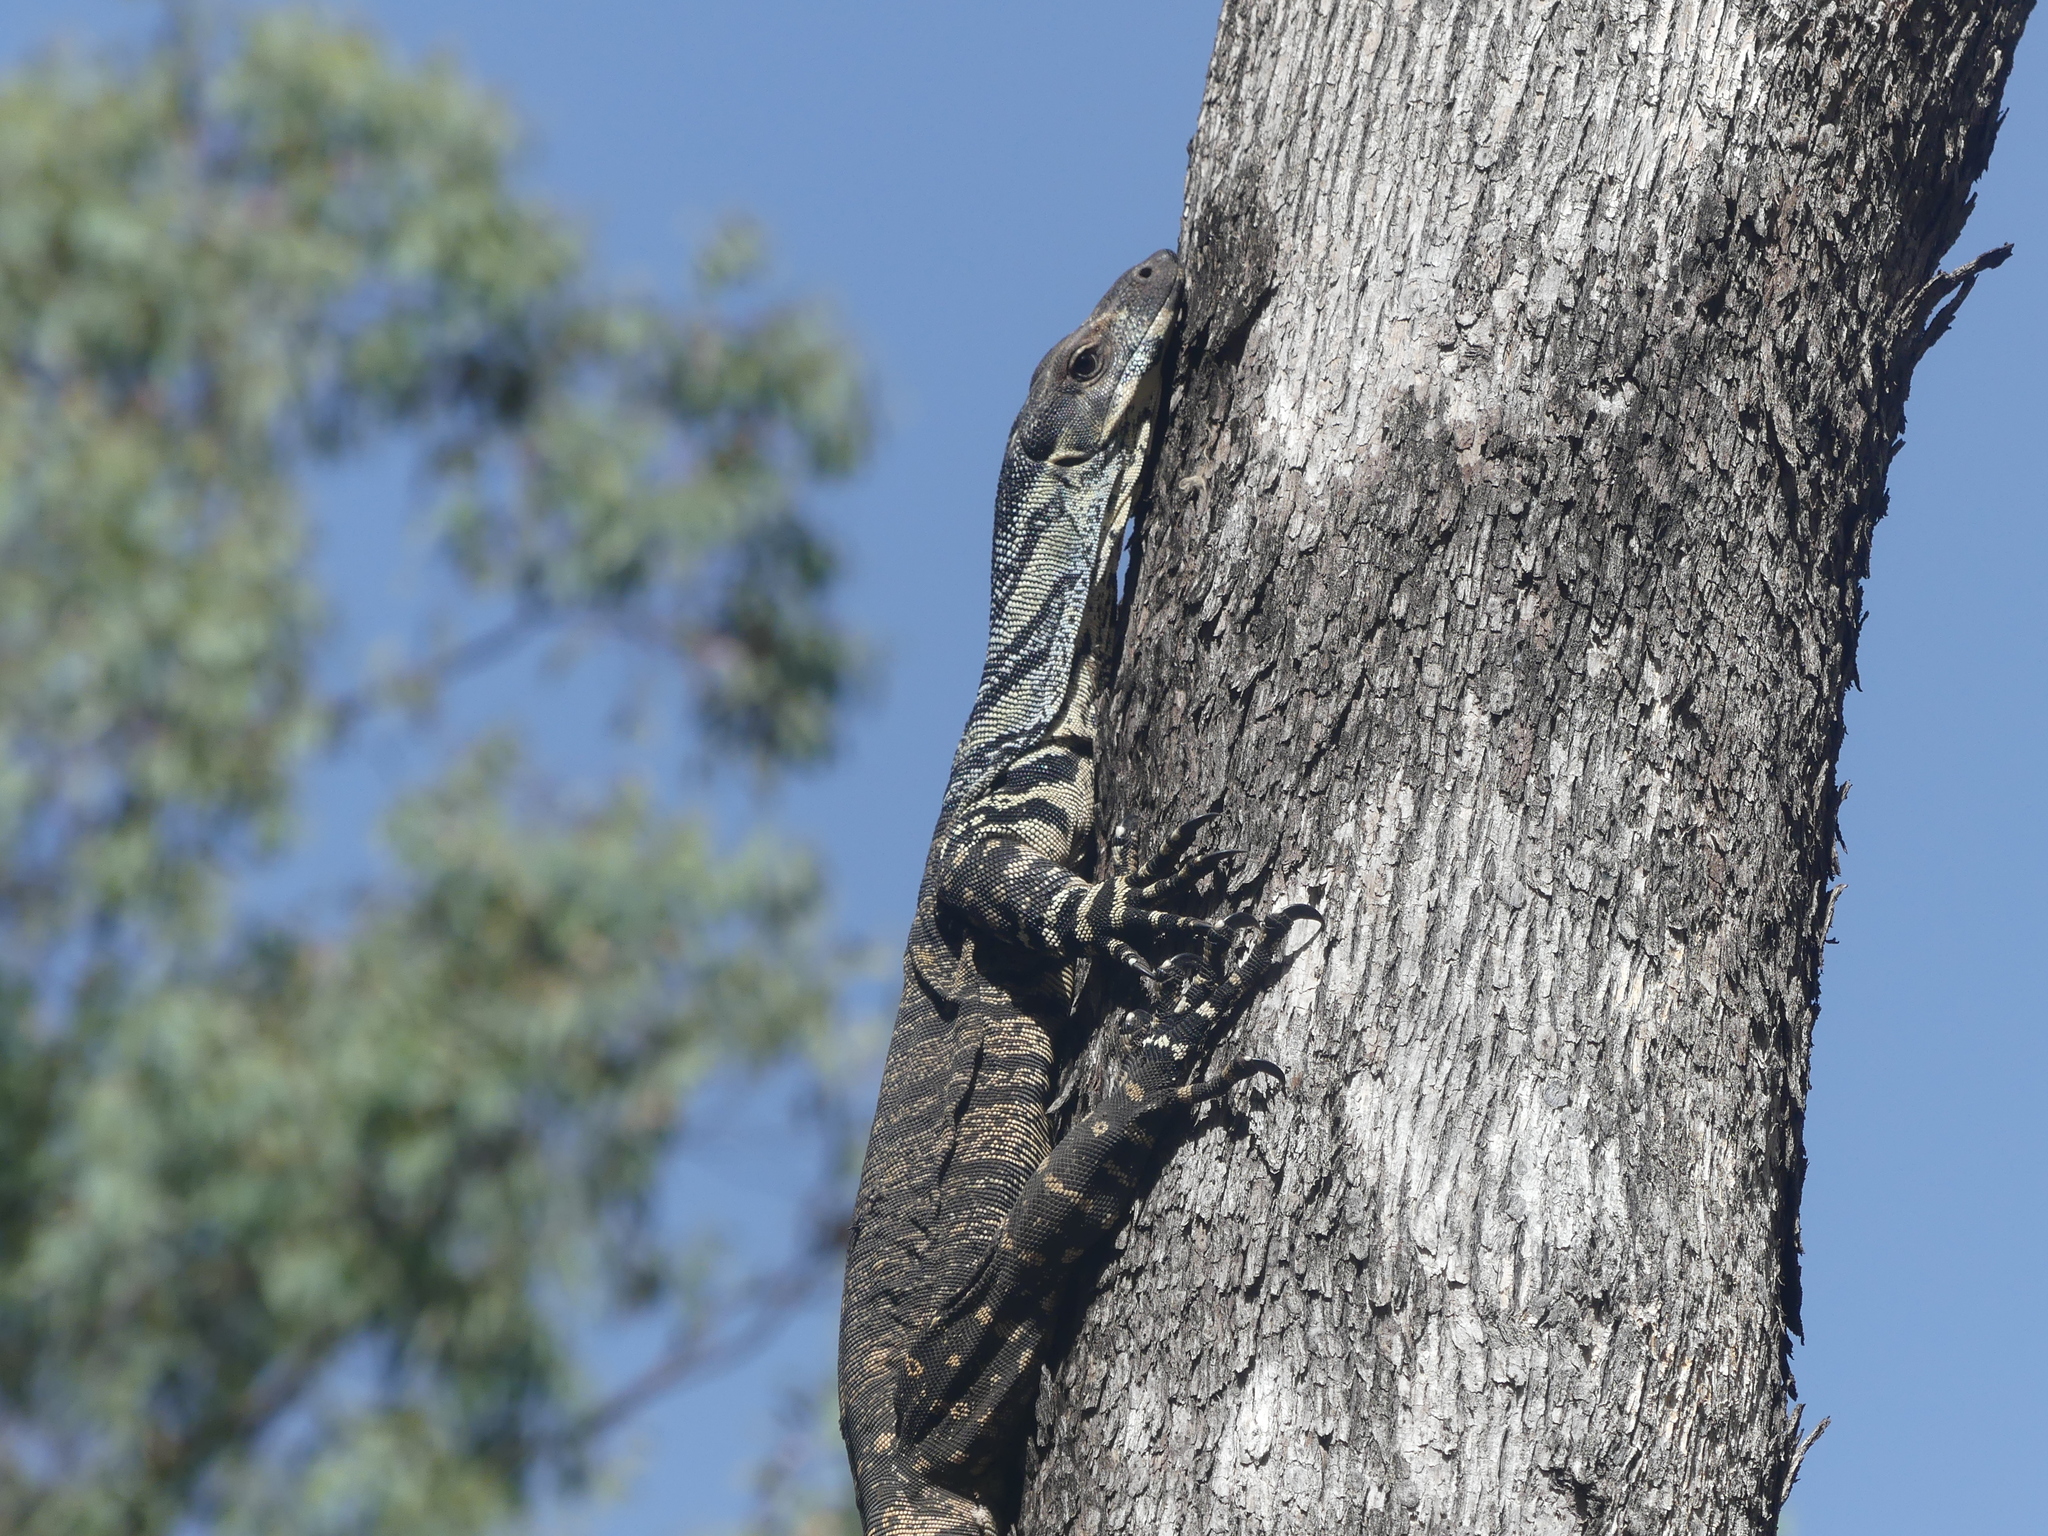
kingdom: Animalia
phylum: Chordata
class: Squamata
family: Varanidae
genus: Varanus
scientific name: Varanus varius
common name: Lace monitor
